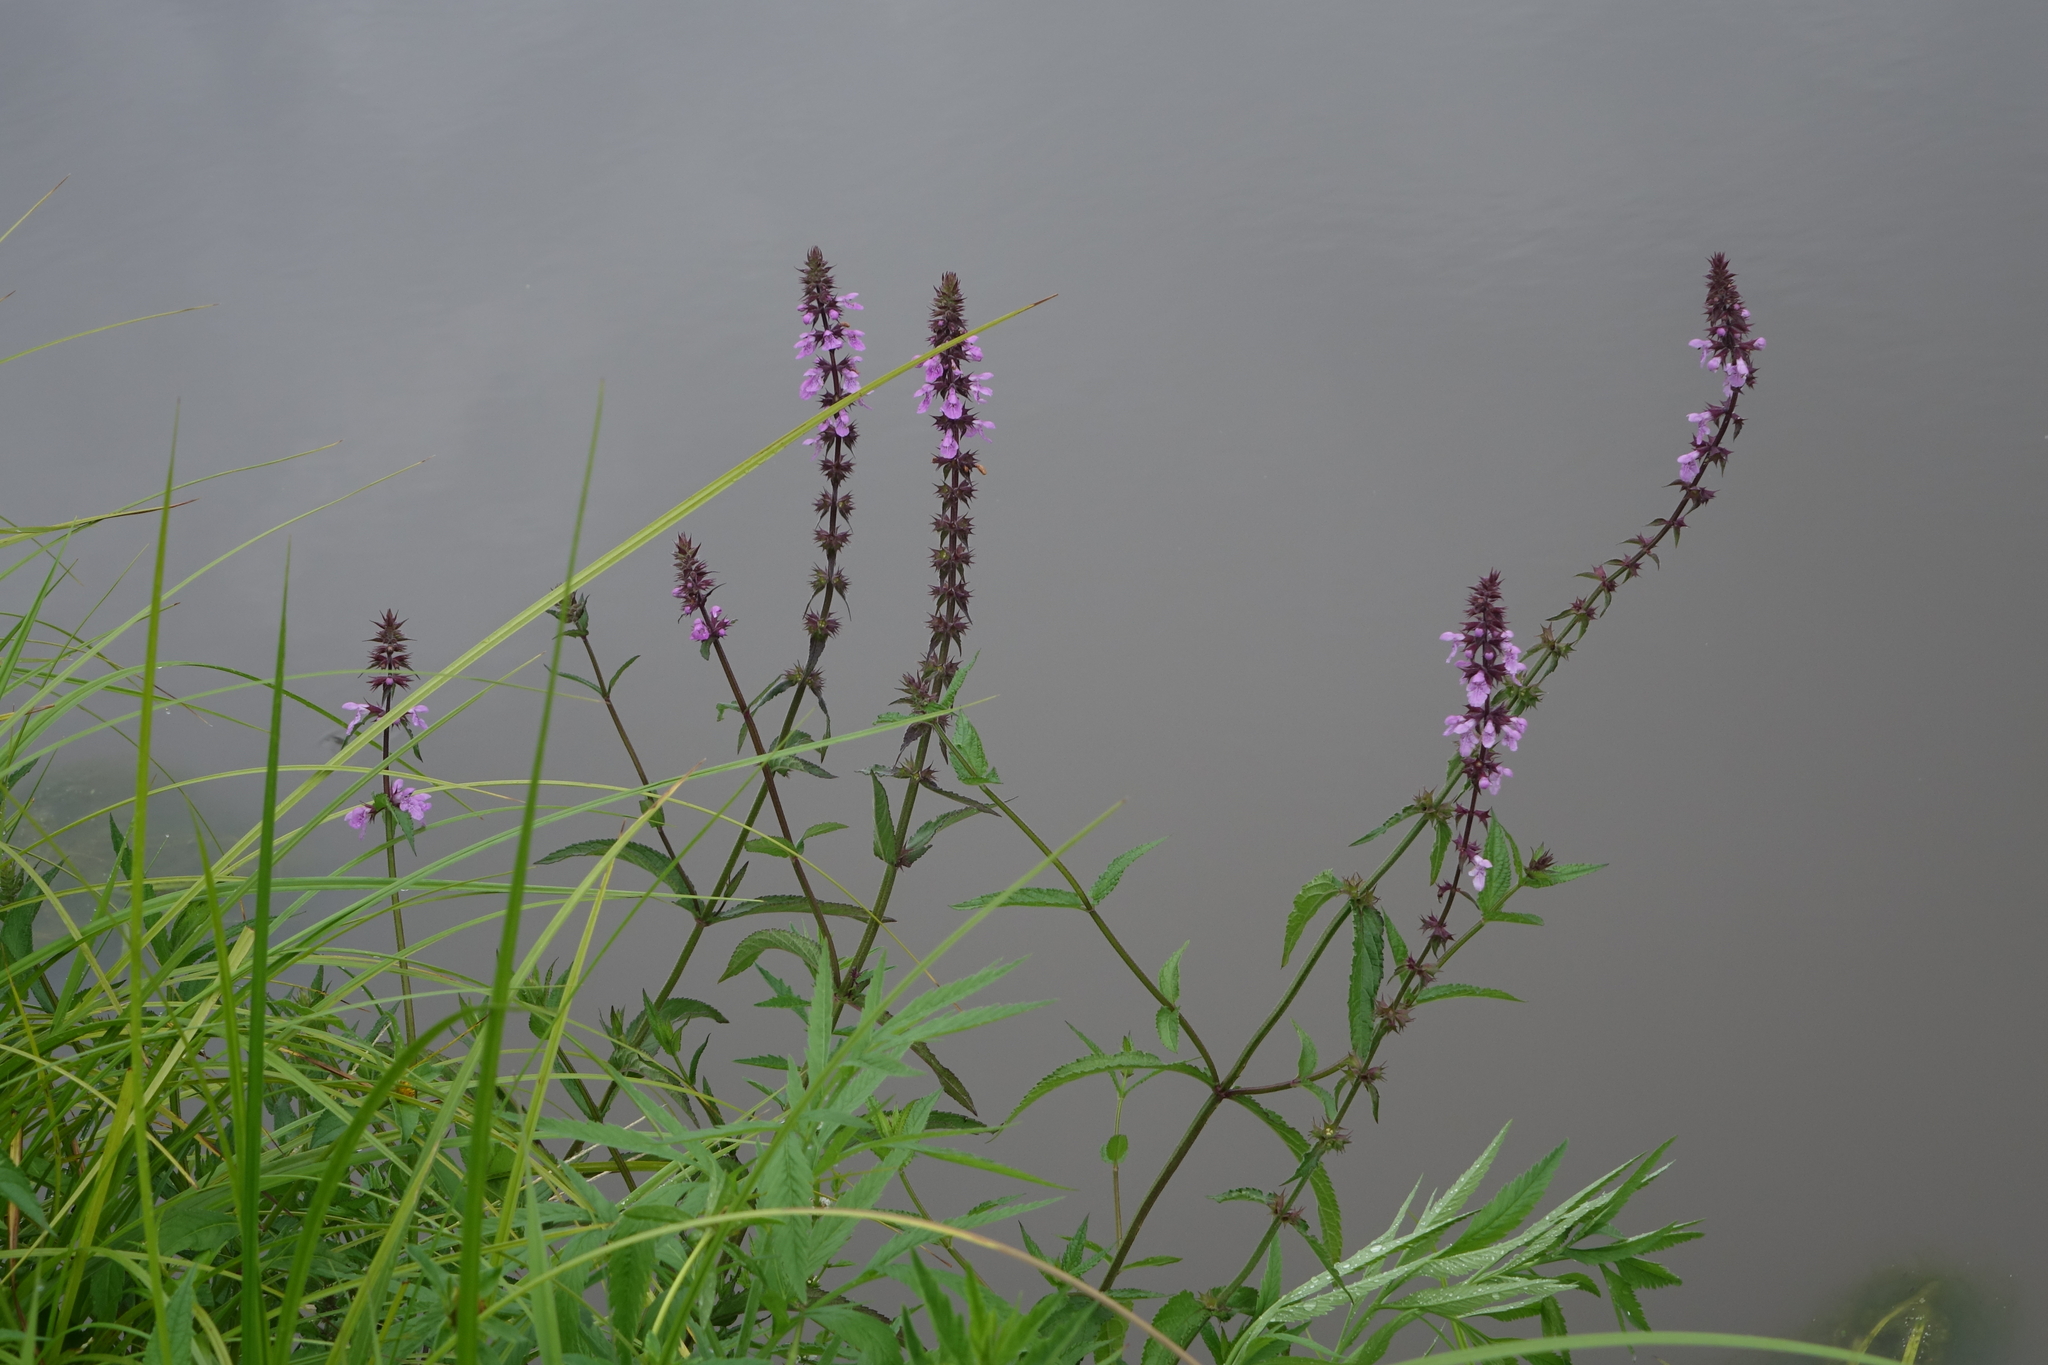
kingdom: Plantae
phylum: Tracheophyta
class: Magnoliopsida
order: Lamiales
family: Lamiaceae
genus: Stachys
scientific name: Stachys palustris
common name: Marsh woundwort
